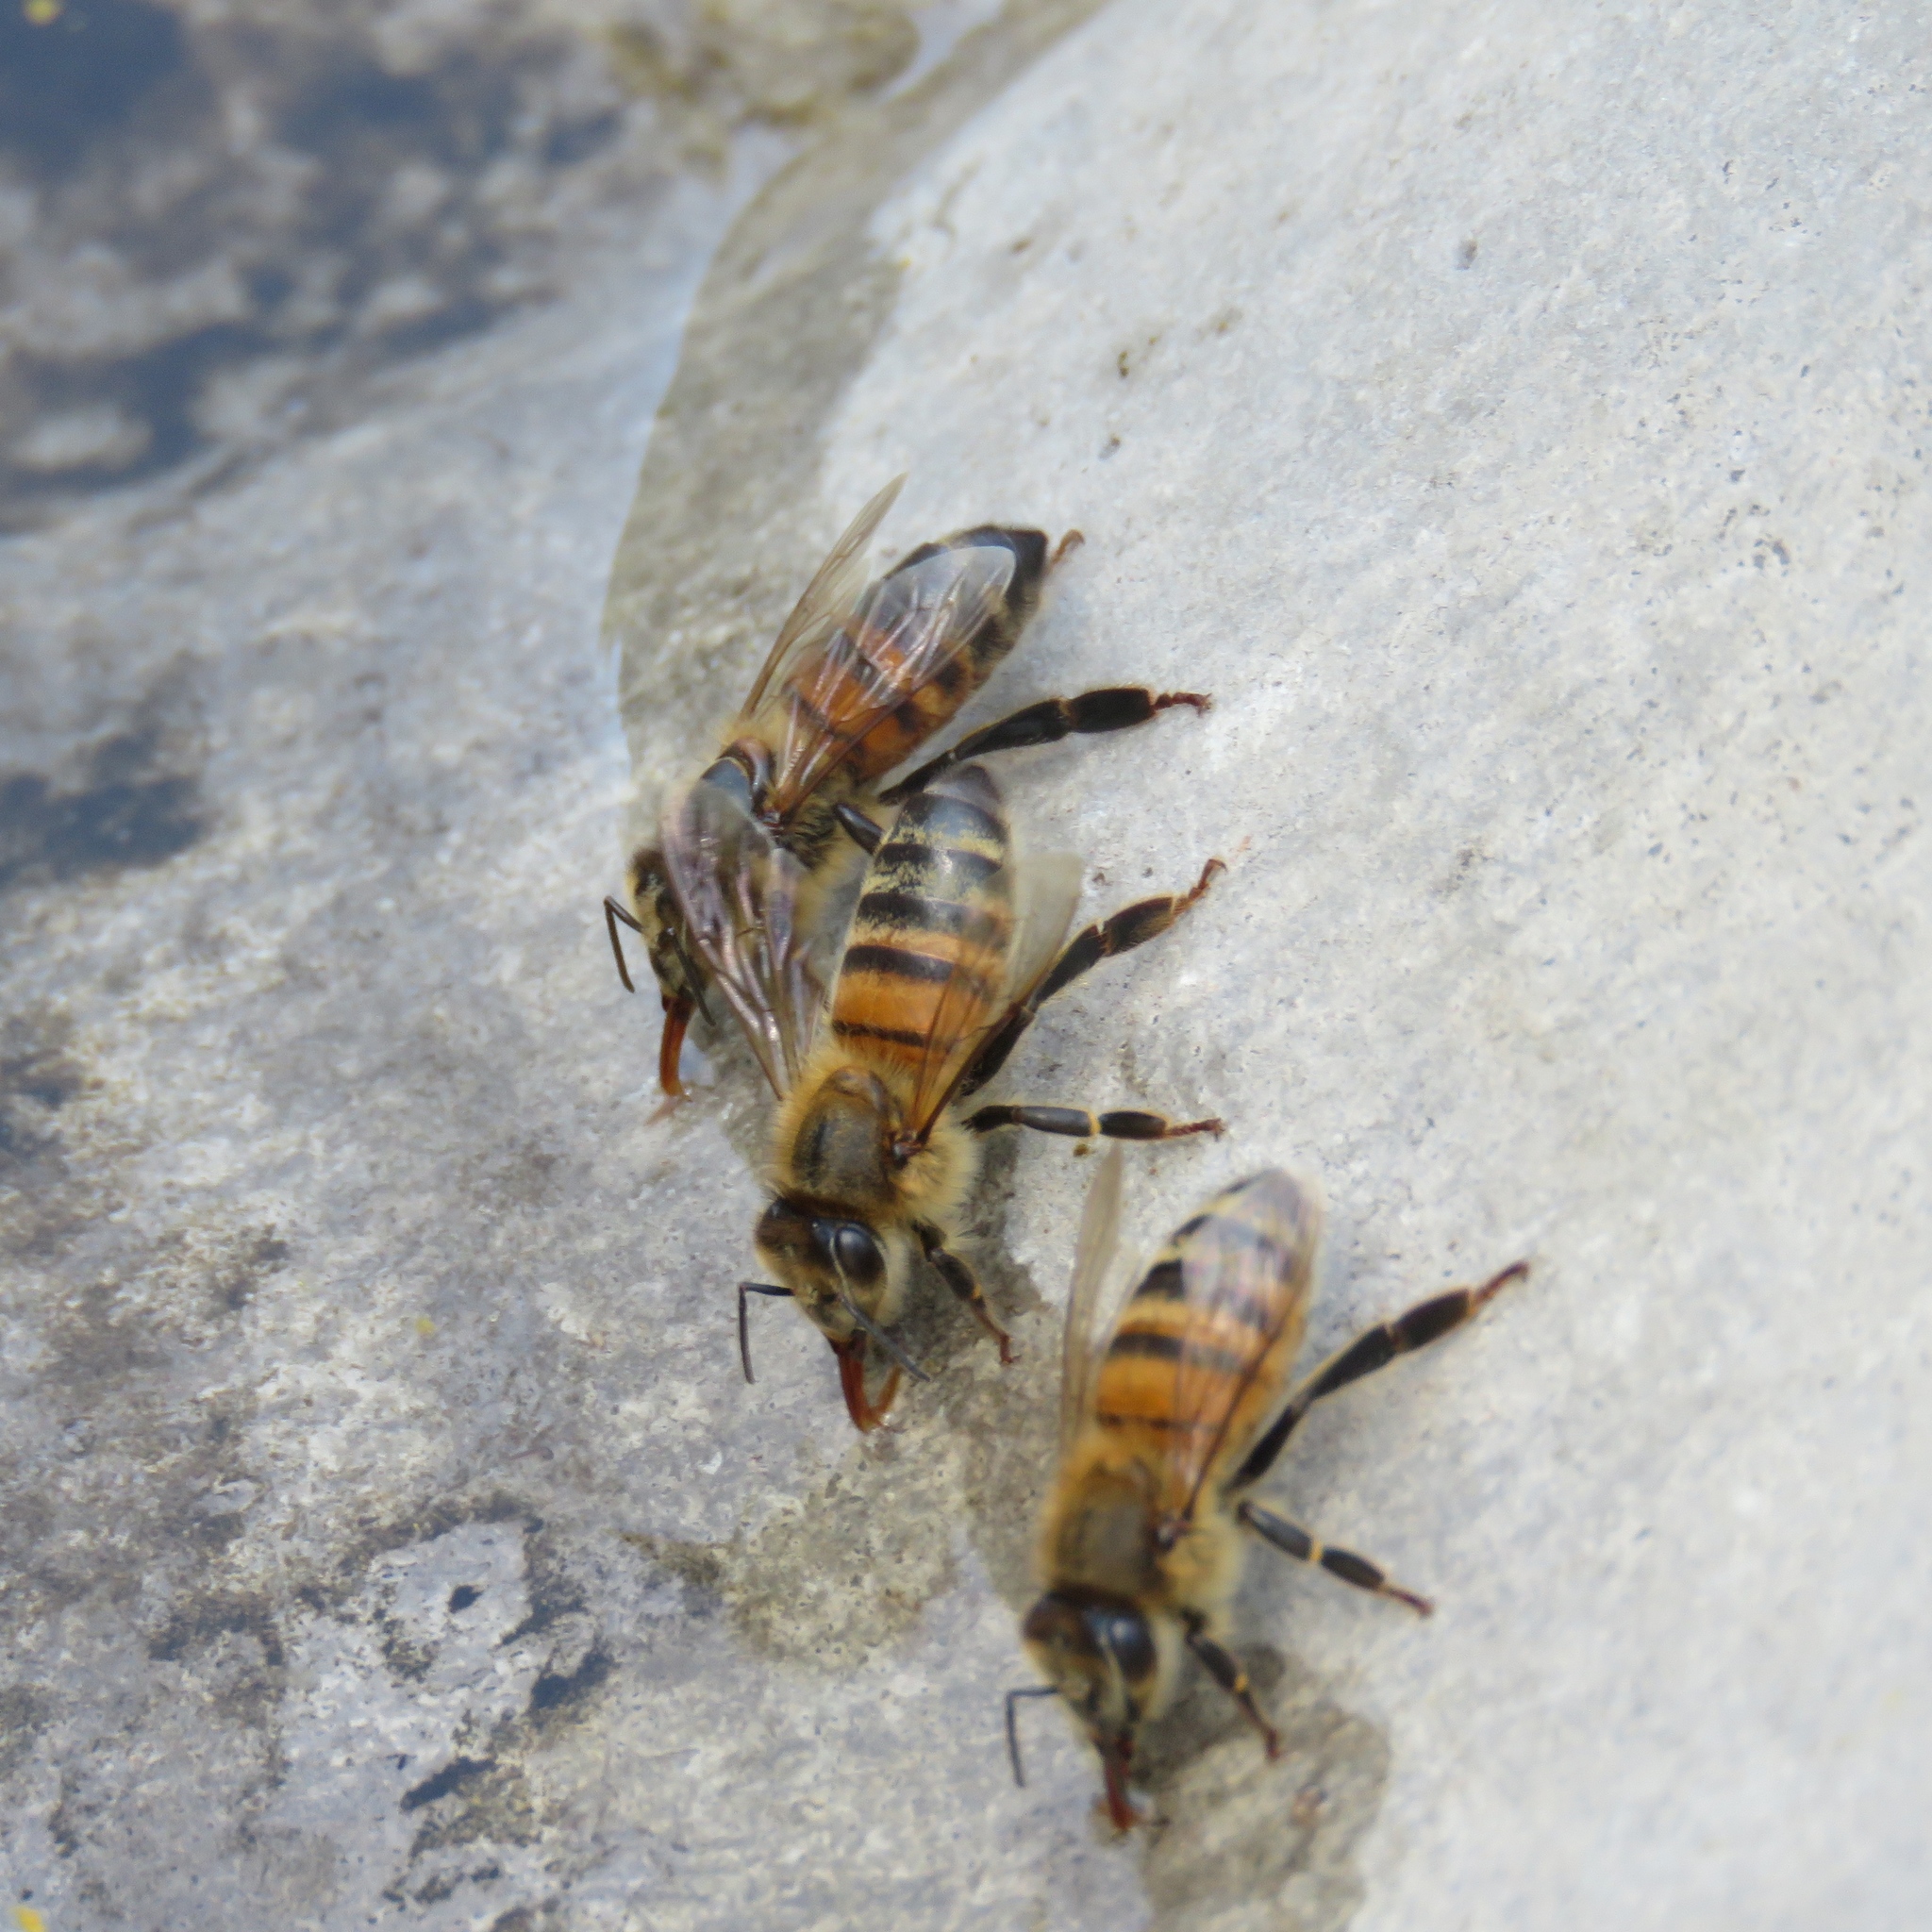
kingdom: Animalia
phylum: Arthropoda
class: Insecta
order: Hymenoptera
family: Apidae
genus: Apis
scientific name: Apis mellifera
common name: Honey bee
